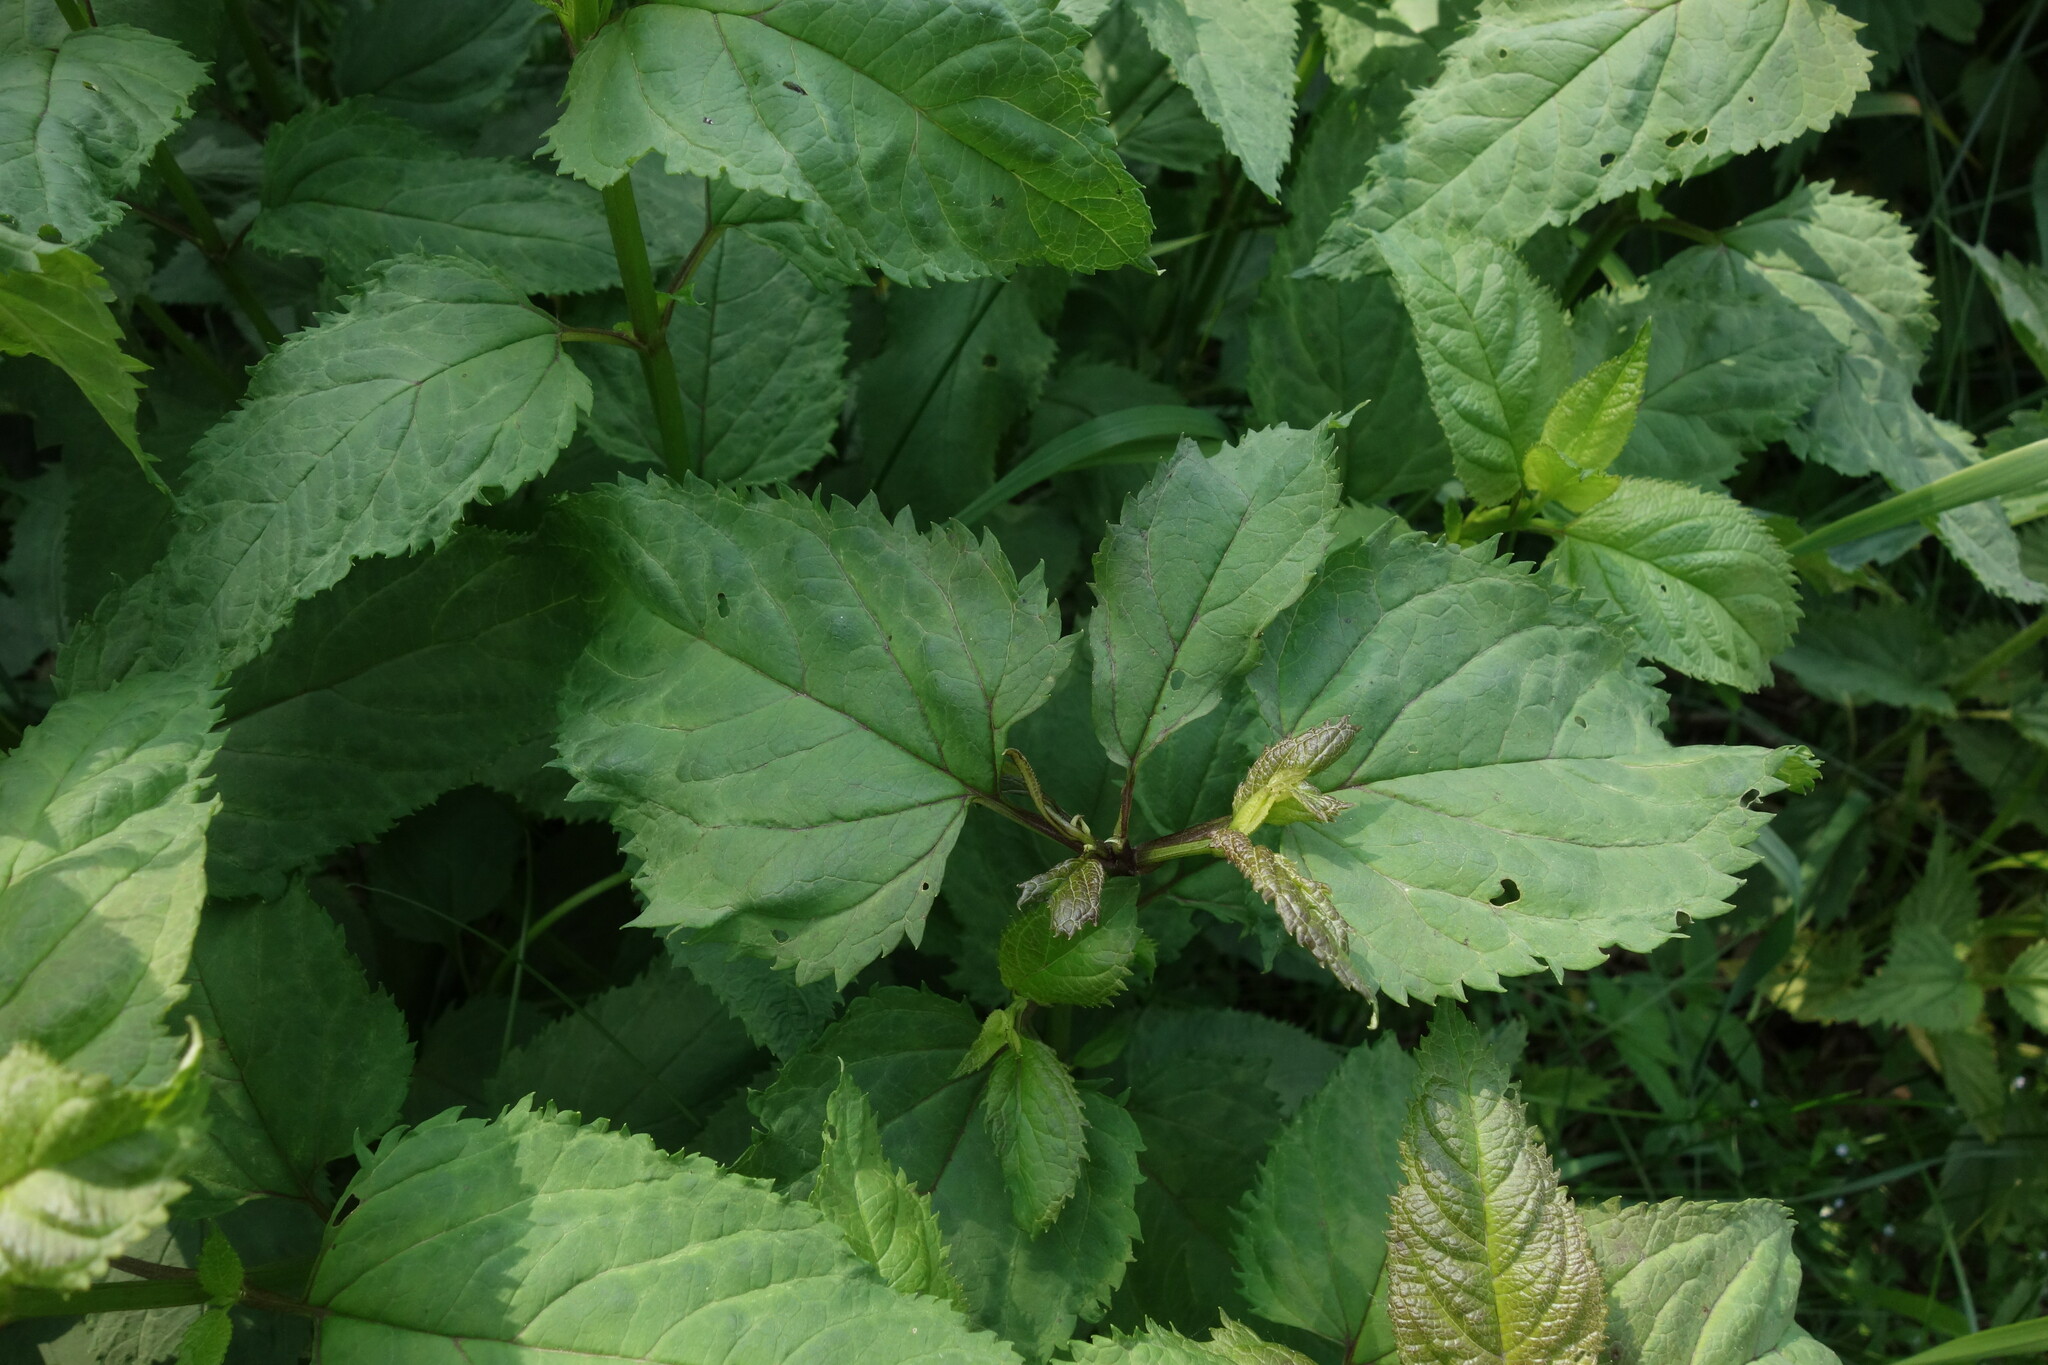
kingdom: Plantae
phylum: Tracheophyta
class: Magnoliopsida
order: Lamiales
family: Scrophulariaceae
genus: Scrophularia
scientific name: Scrophularia nodosa
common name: Common figwort
